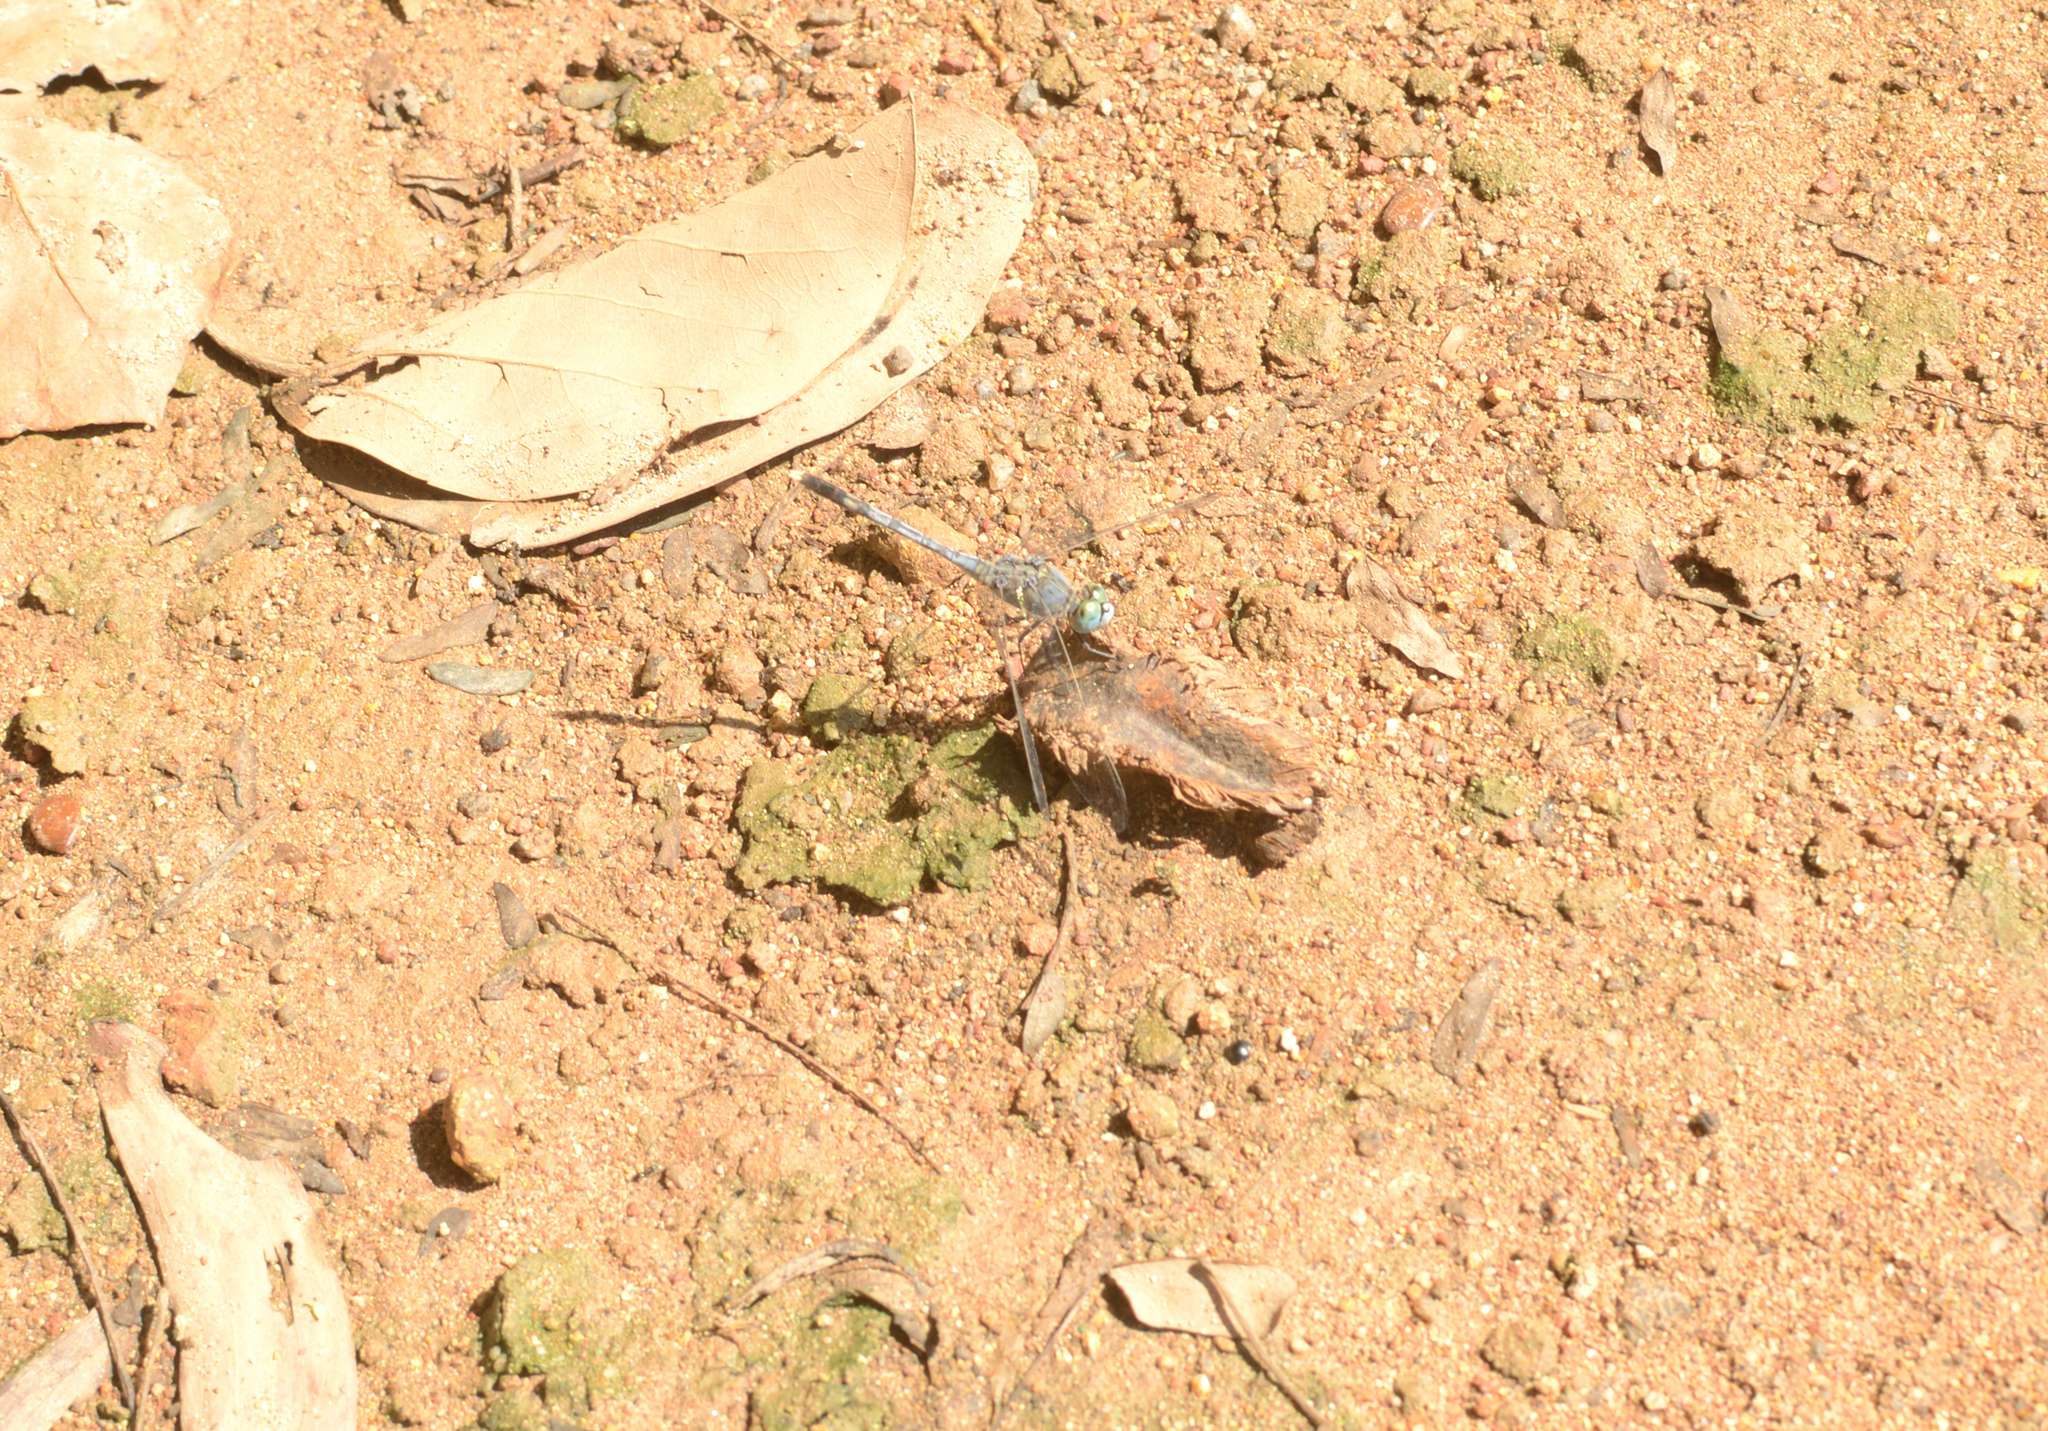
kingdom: Animalia
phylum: Arthropoda
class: Insecta
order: Odonata
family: Libellulidae
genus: Diplacodes
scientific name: Diplacodes trivialis
